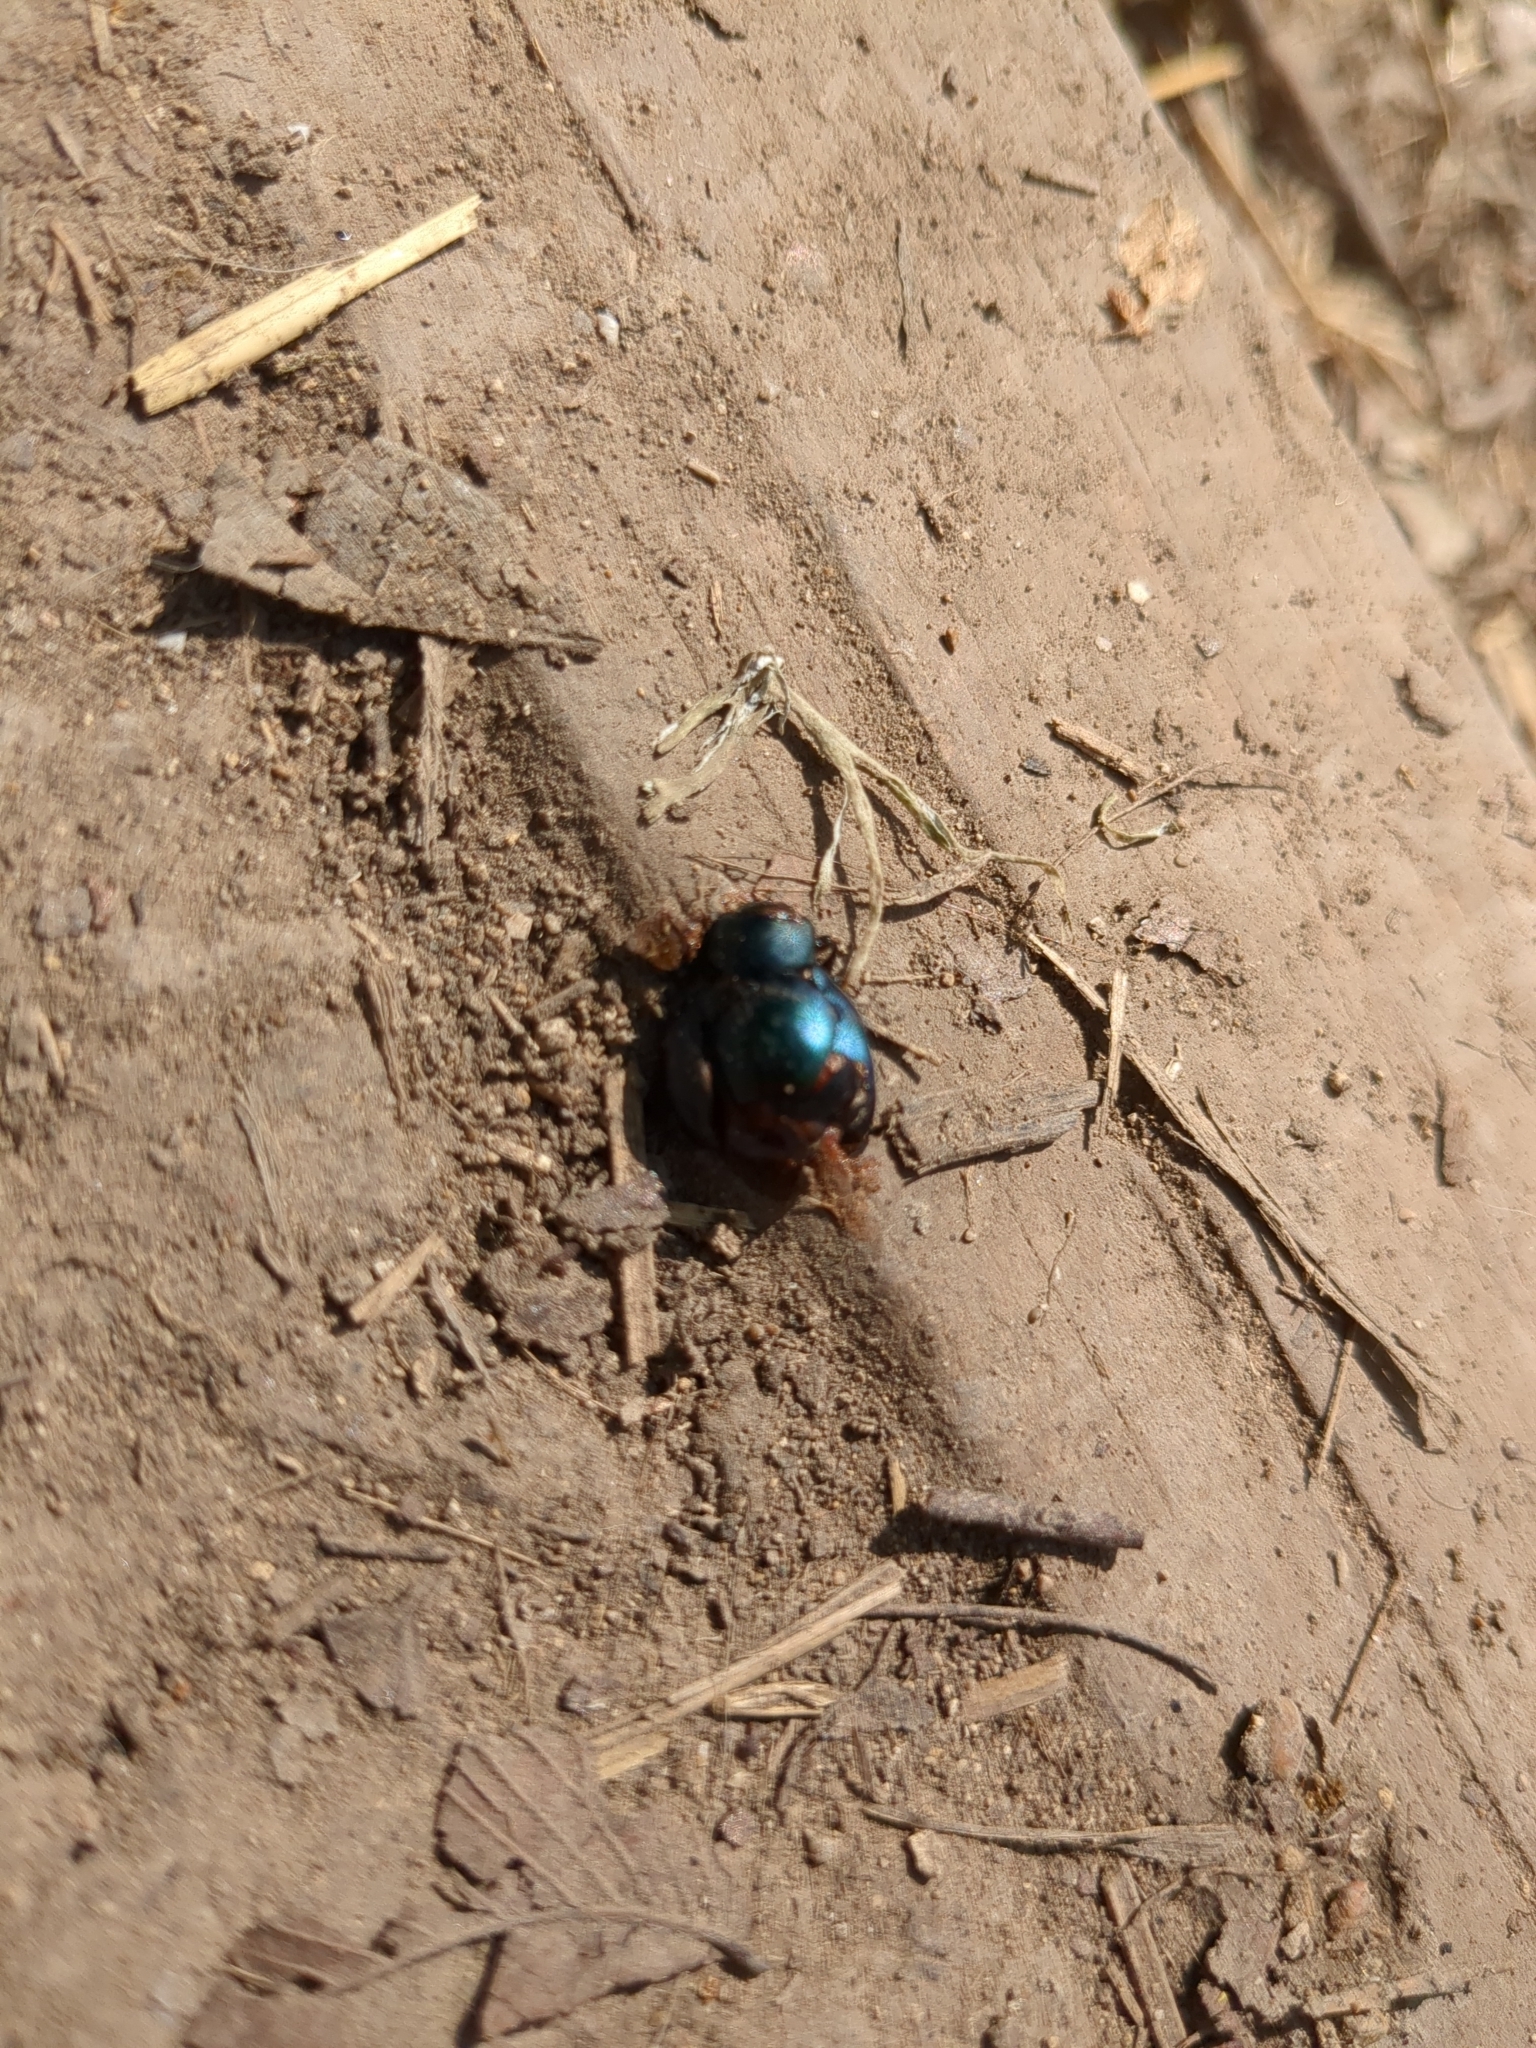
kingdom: Animalia
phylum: Arthropoda
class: Insecta
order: Coleoptera
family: Chrysomelidae
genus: Leptinotarsa
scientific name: Leptinotarsa haldemani
